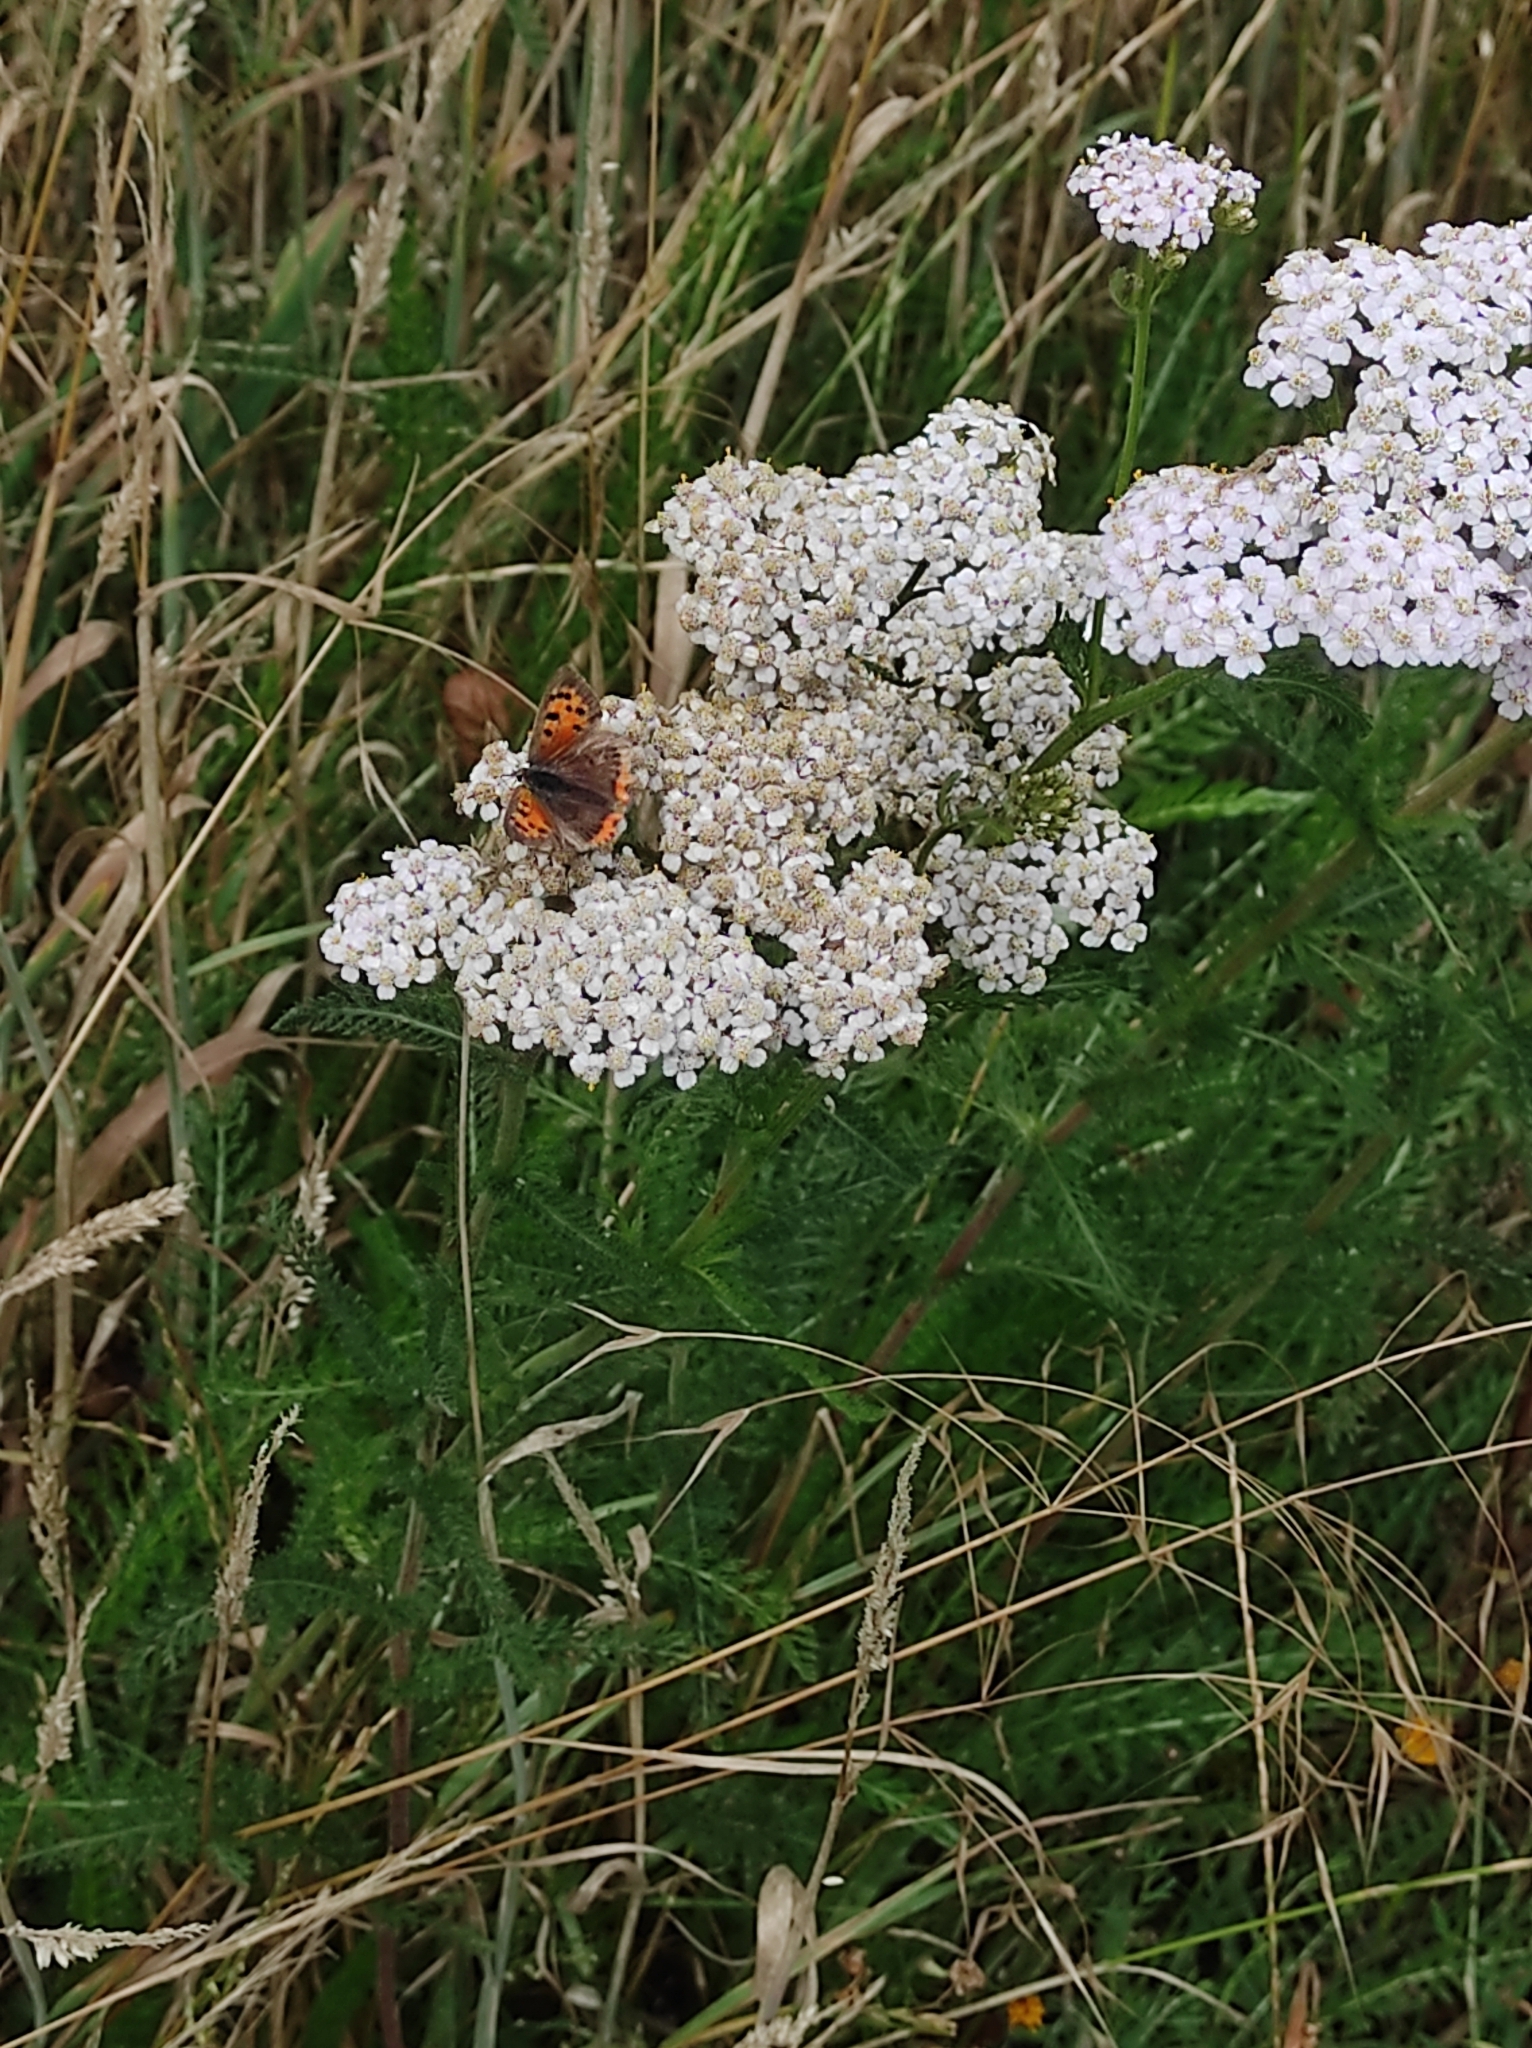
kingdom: Animalia
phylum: Arthropoda
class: Insecta
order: Lepidoptera
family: Lycaenidae
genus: Lycaena
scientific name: Lycaena phlaeas
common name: Small copper
